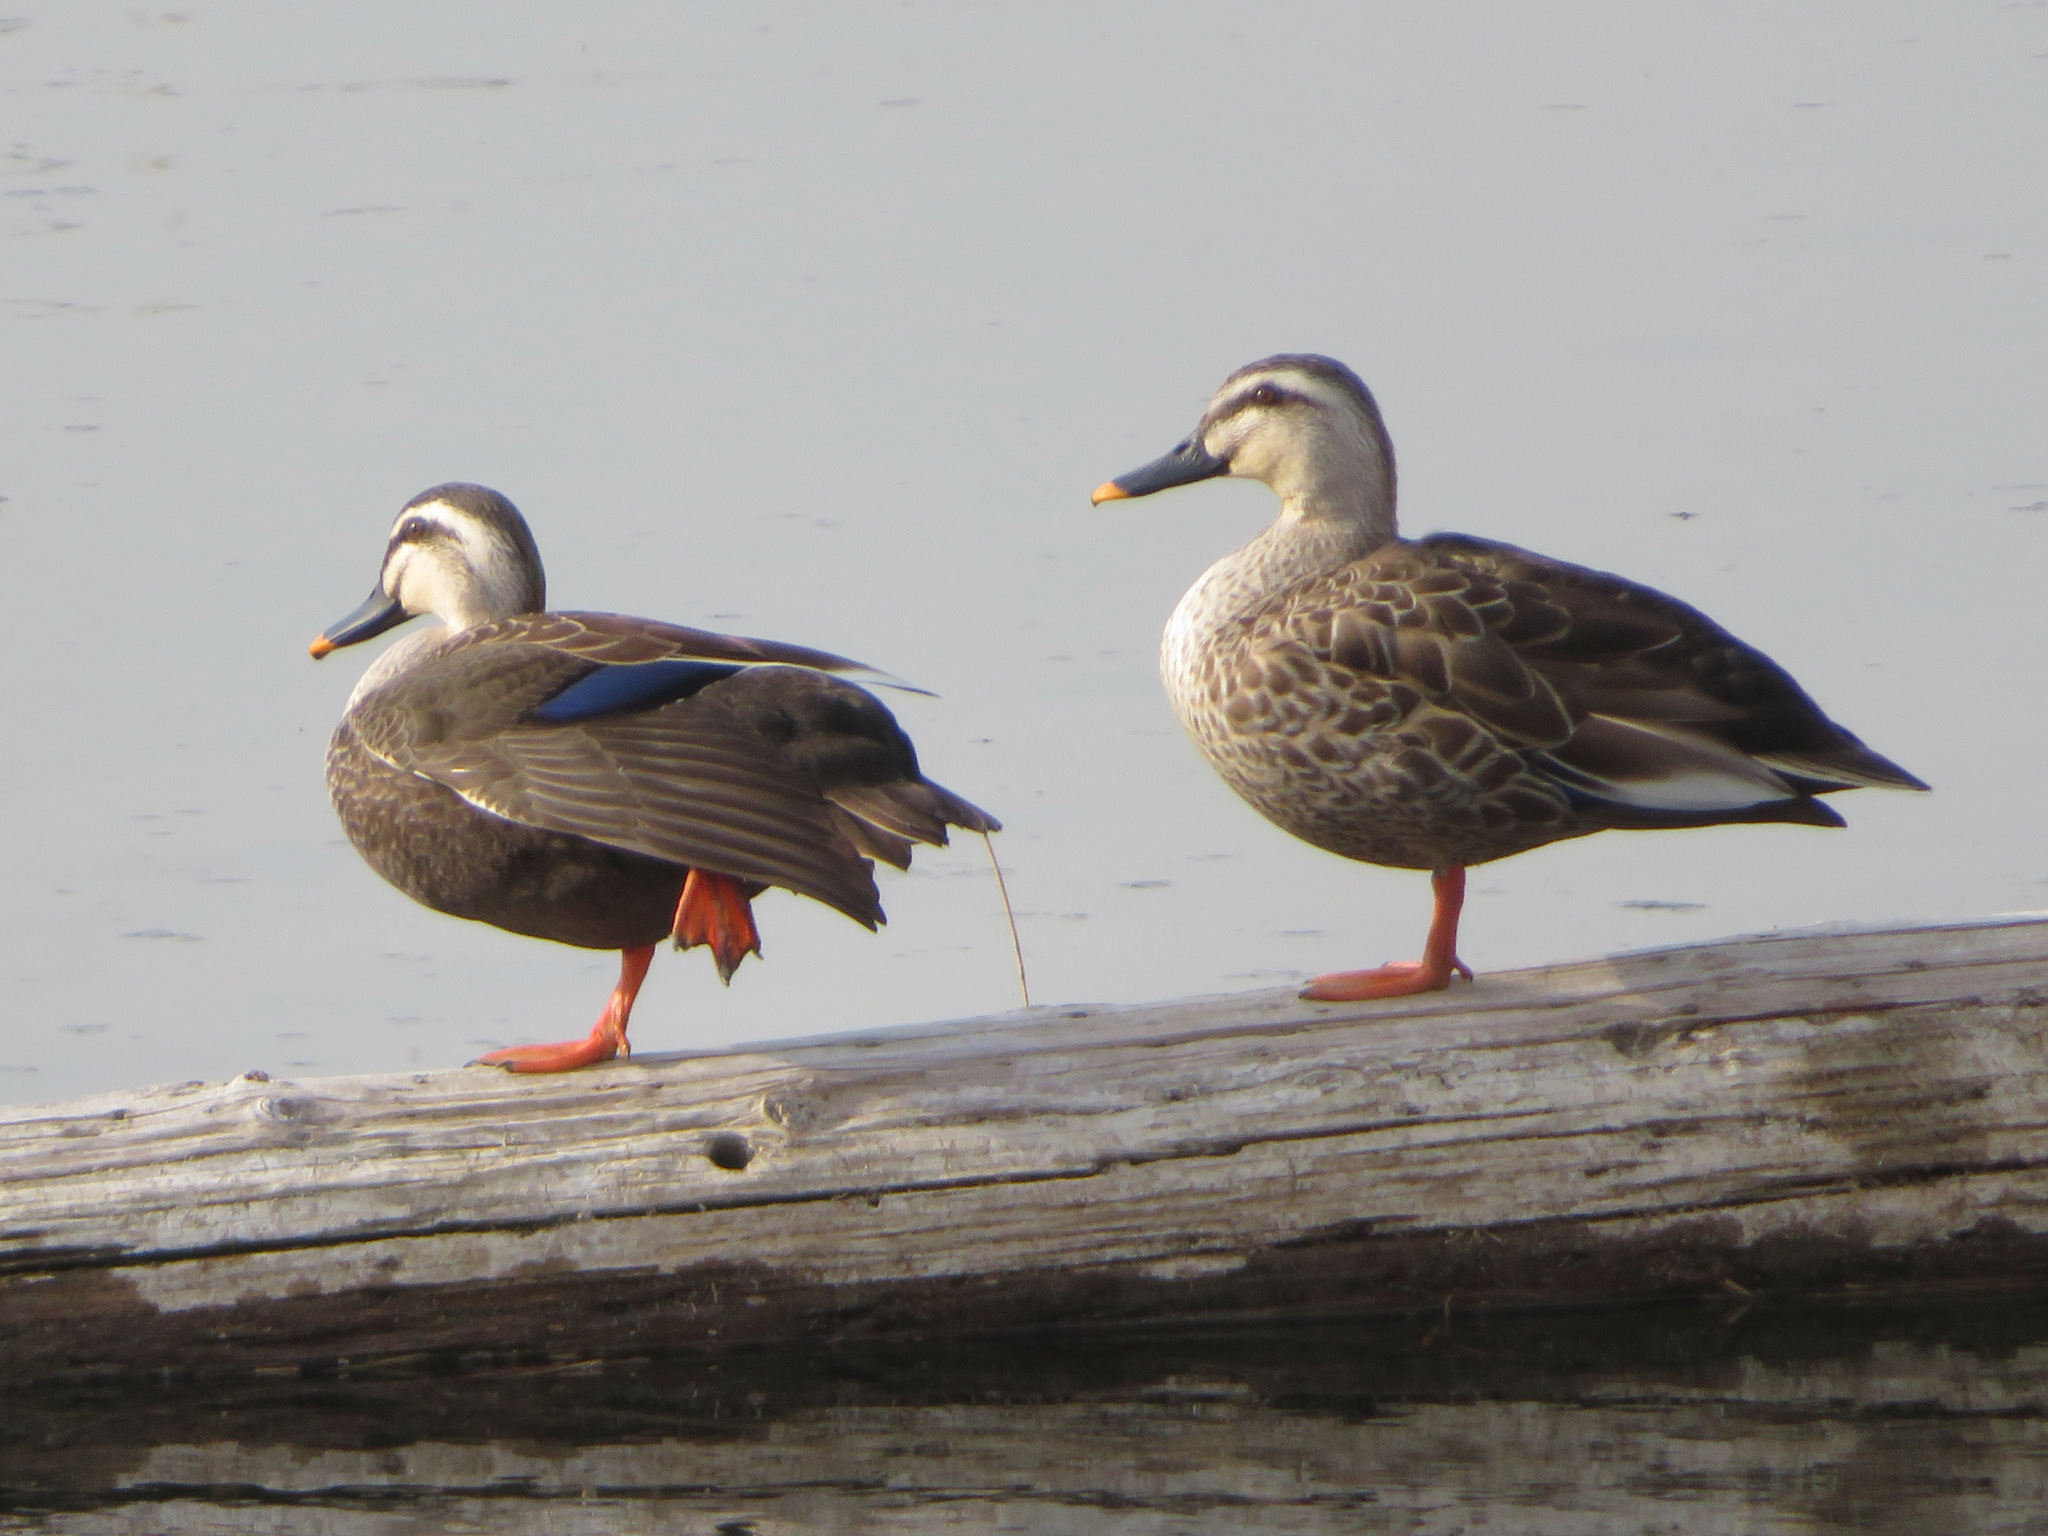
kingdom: Animalia
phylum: Chordata
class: Aves
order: Anseriformes
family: Anatidae
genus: Anas
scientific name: Anas zonorhyncha
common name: Eastern spot-billed duck
